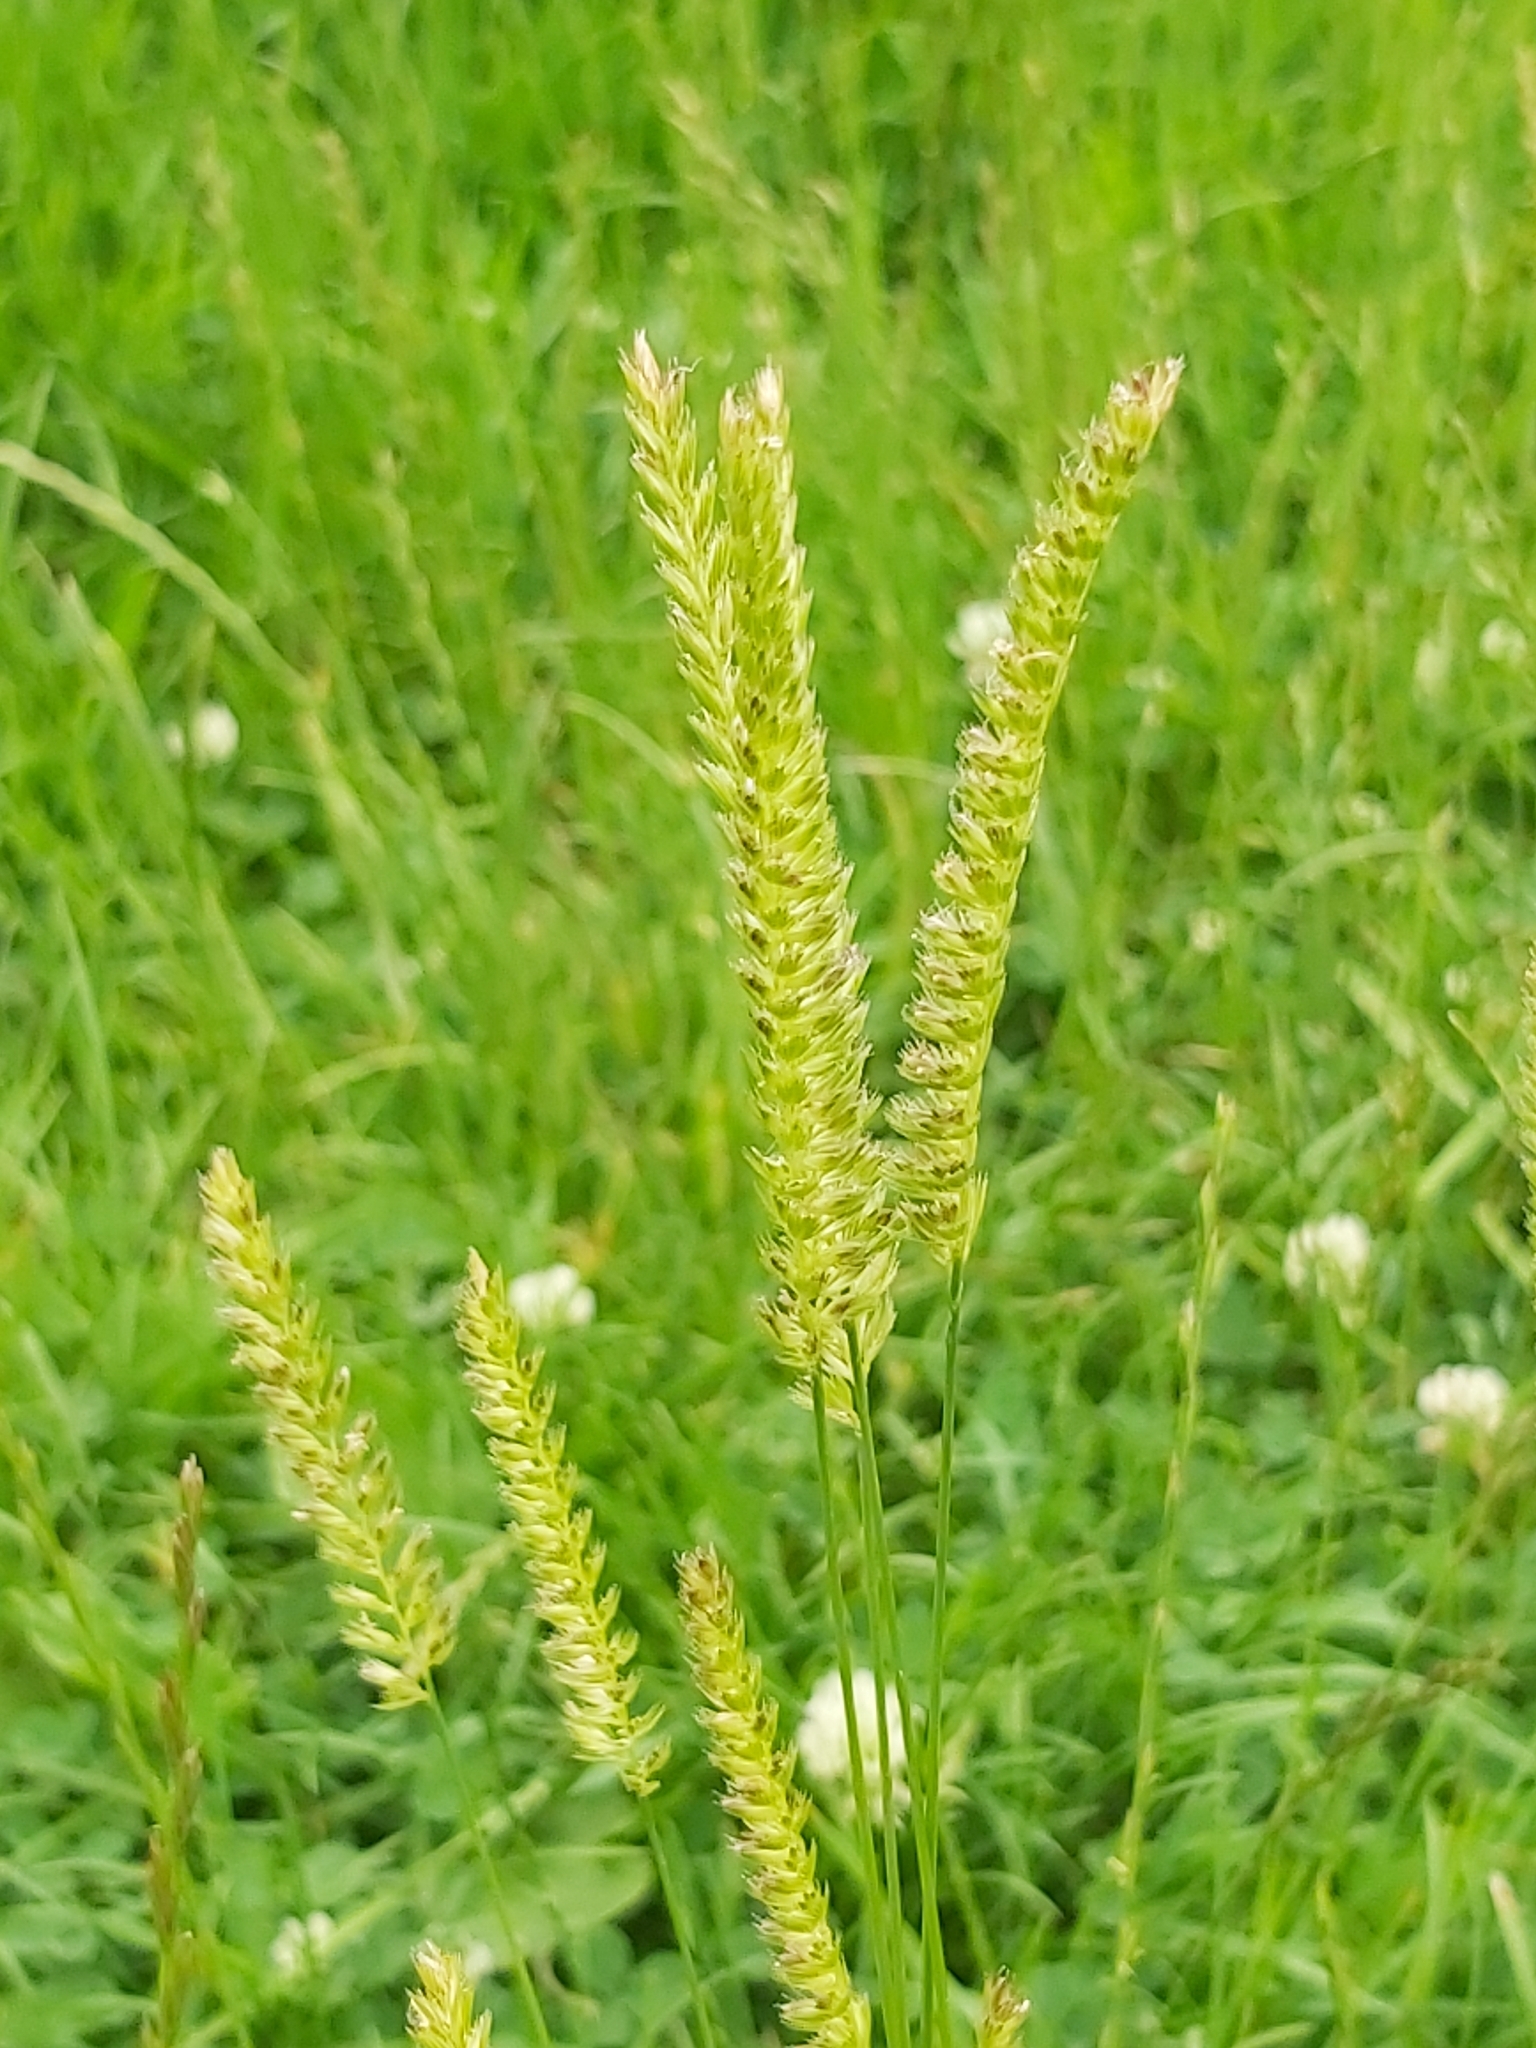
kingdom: Plantae
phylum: Tracheophyta
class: Liliopsida
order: Poales
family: Poaceae
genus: Cynosurus
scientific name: Cynosurus cristatus
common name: Crested dog's-tail
